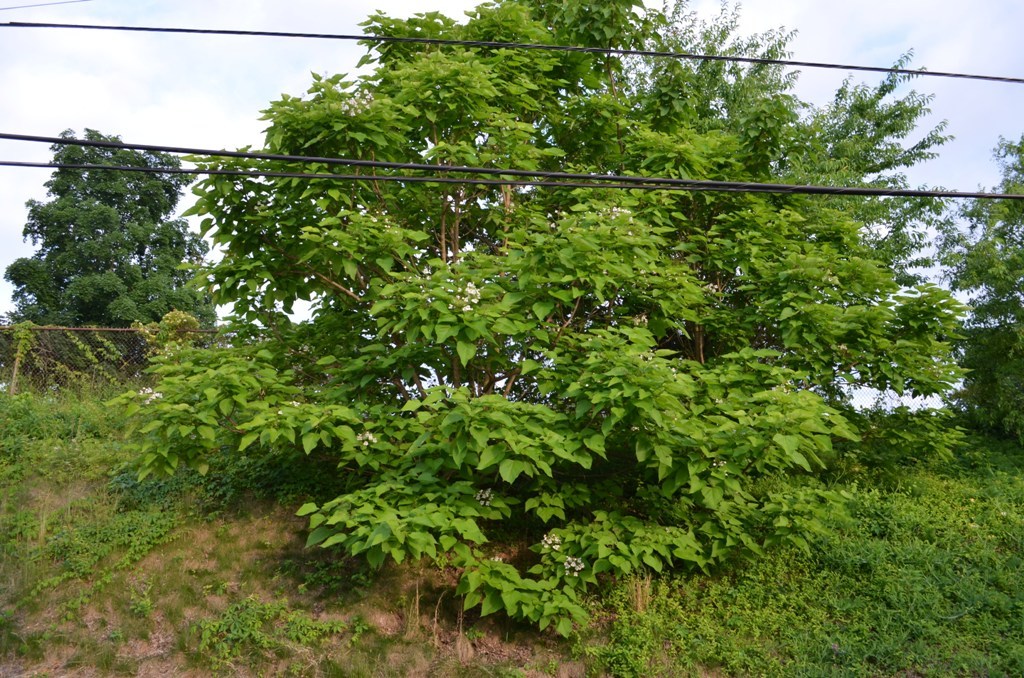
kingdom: Plantae
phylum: Tracheophyta
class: Magnoliopsida
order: Lamiales
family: Bignoniaceae
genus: Catalpa
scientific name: Catalpa speciosa
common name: Northern catalpa
